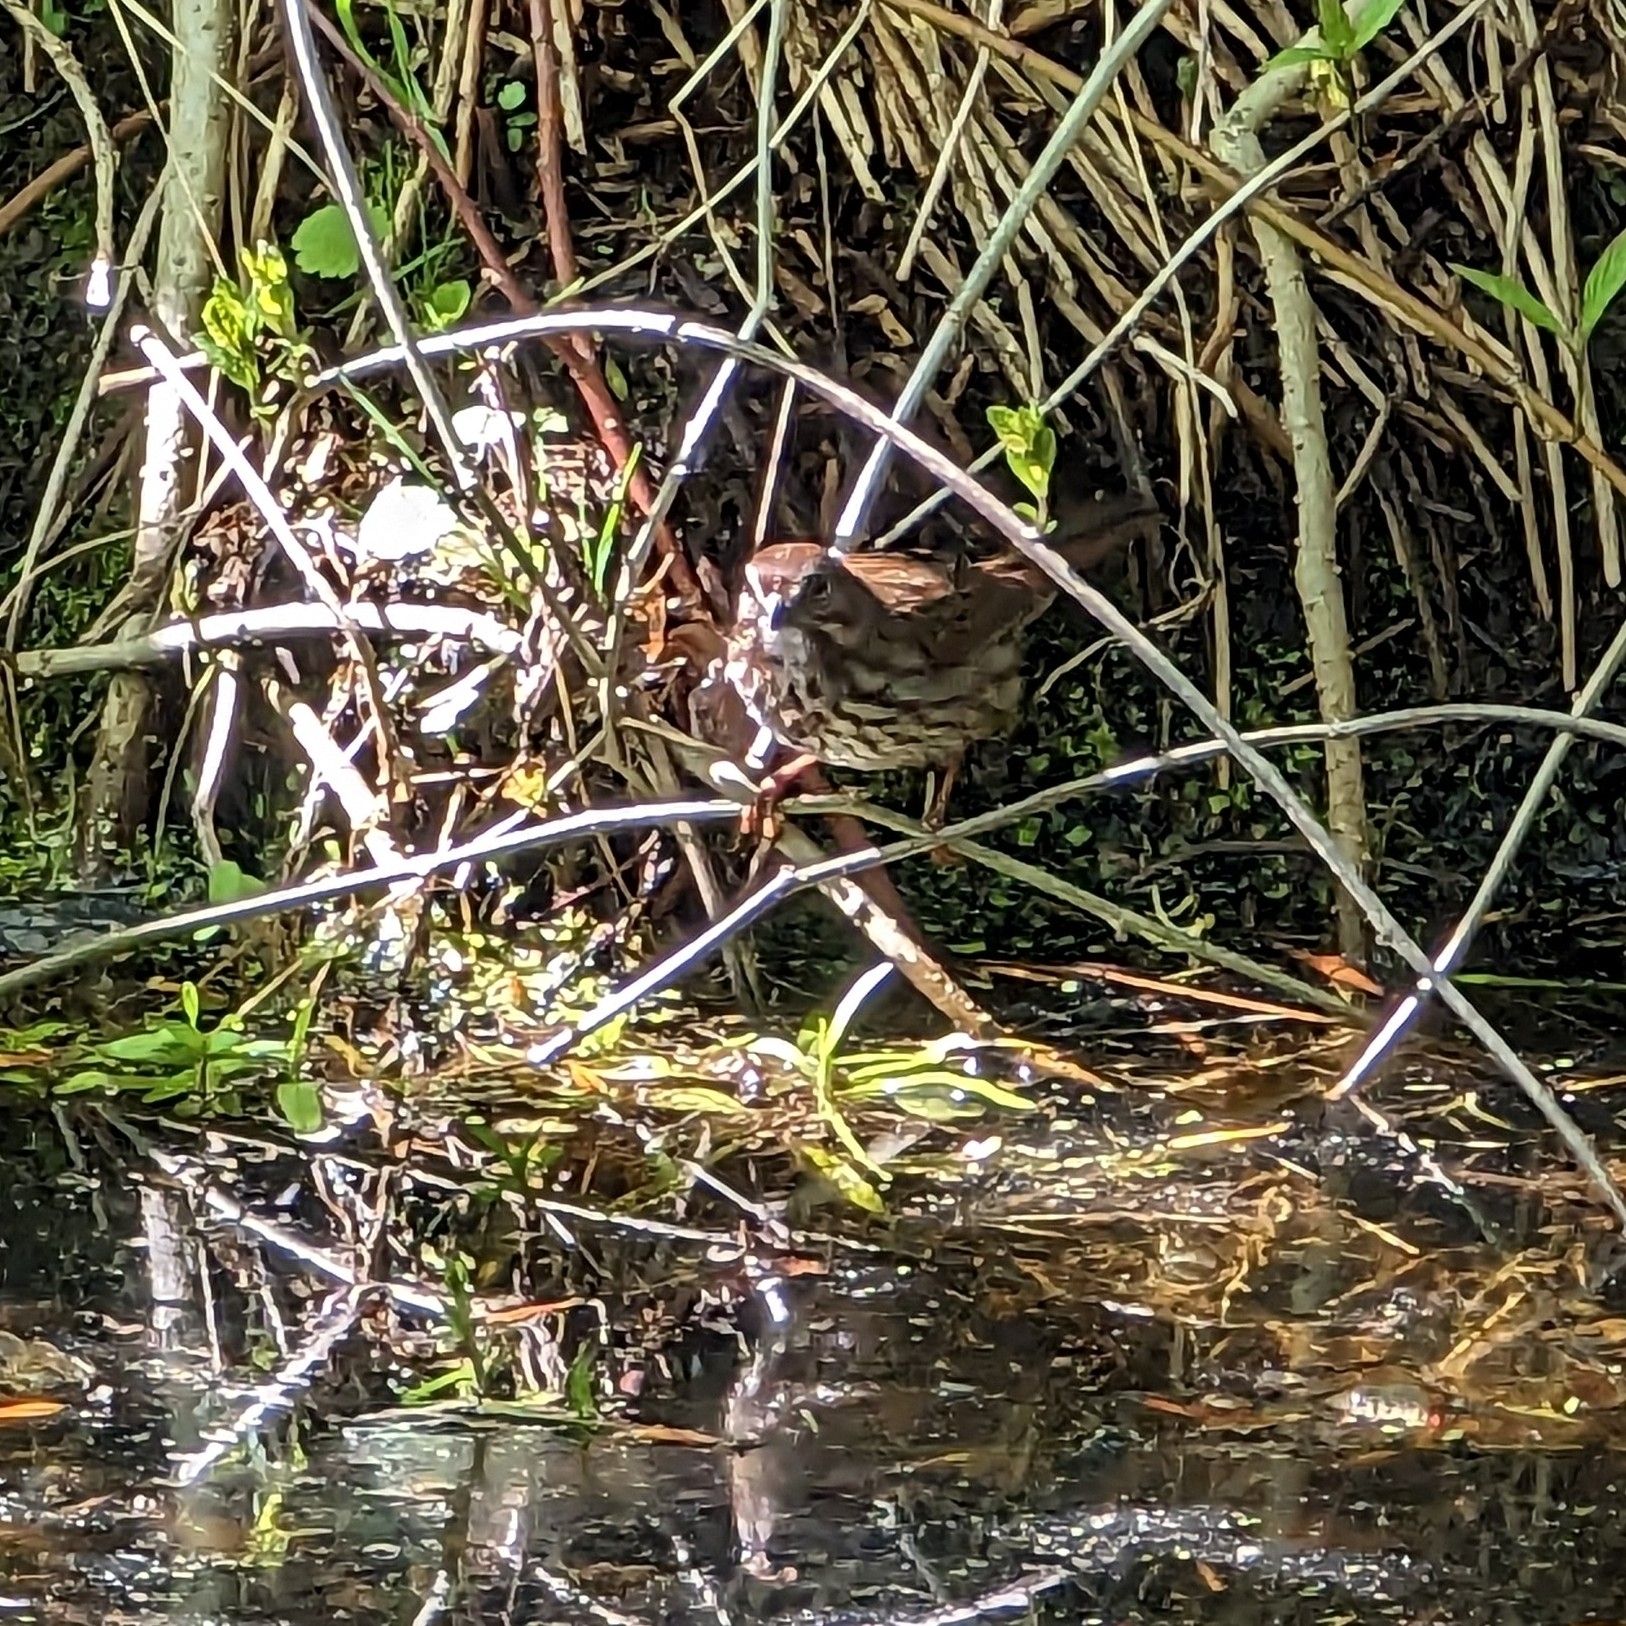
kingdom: Animalia
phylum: Chordata
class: Aves
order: Passeriformes
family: Passerellidae
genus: Melospiza
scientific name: Melospiza melodia
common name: Song sparrow
